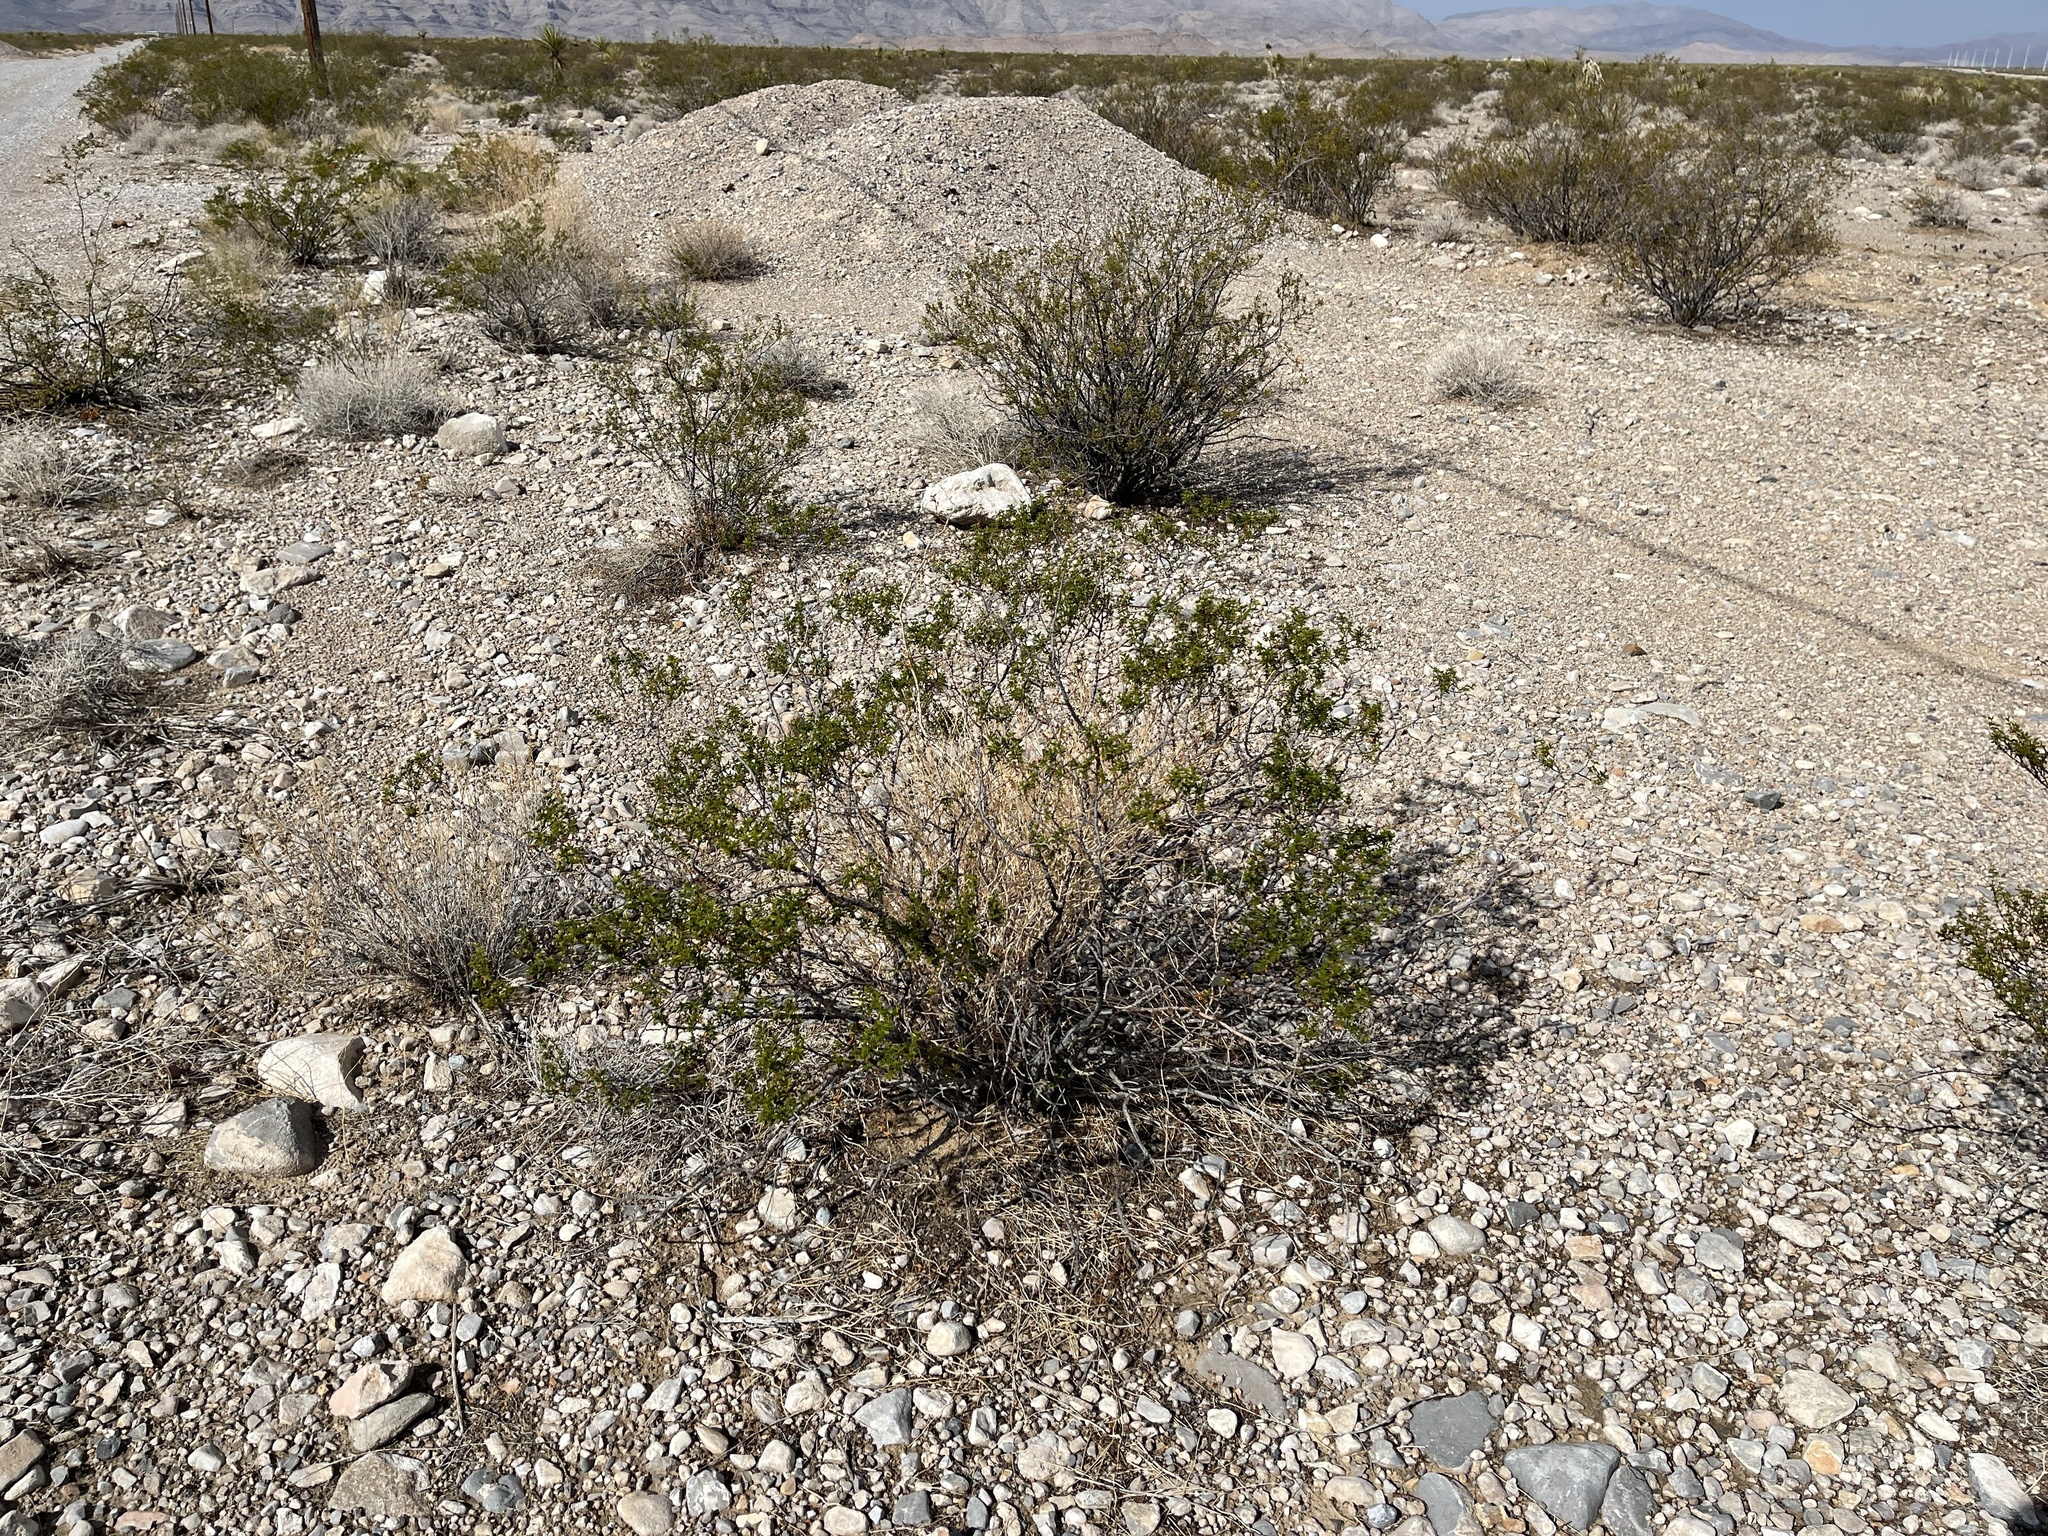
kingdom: Plantae
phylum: Tracheophyta
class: Magnoliopsida
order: Zygophyllales
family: Zygophyllaceae
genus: Larrea
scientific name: Larrea tridentata
